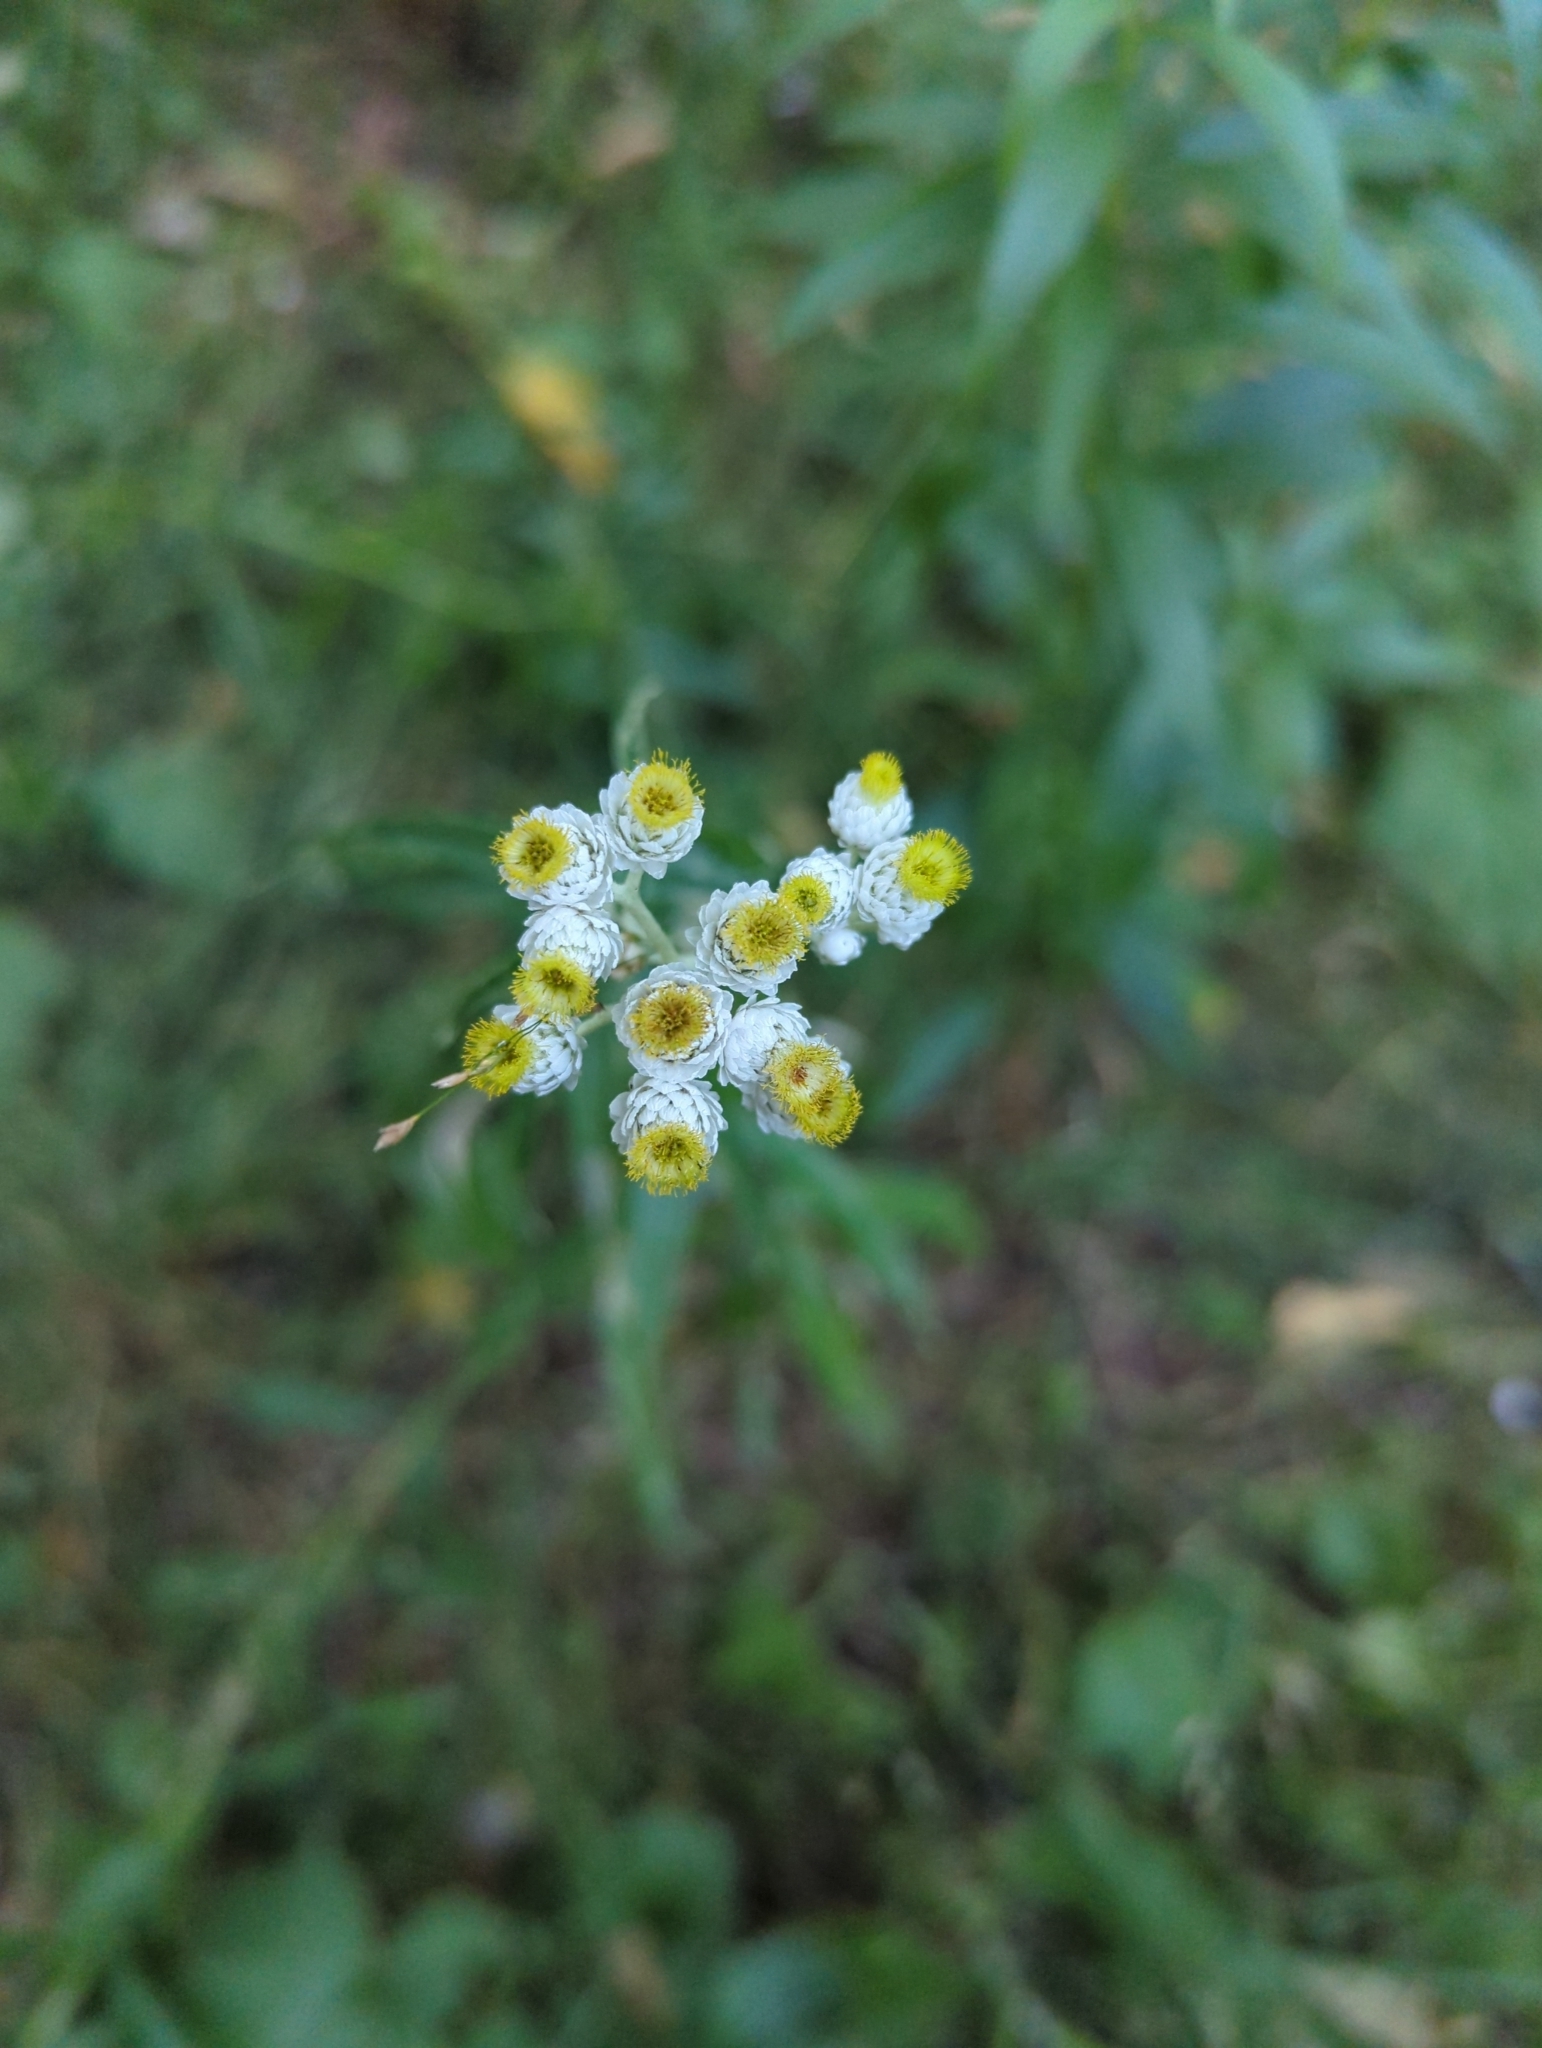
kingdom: Plantae
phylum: Tracheophyta
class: Magnoliopsida
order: Asterales
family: Asteraceae
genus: Anaphalis
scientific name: Anaphalis margaritacea
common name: Pearly everlasting
